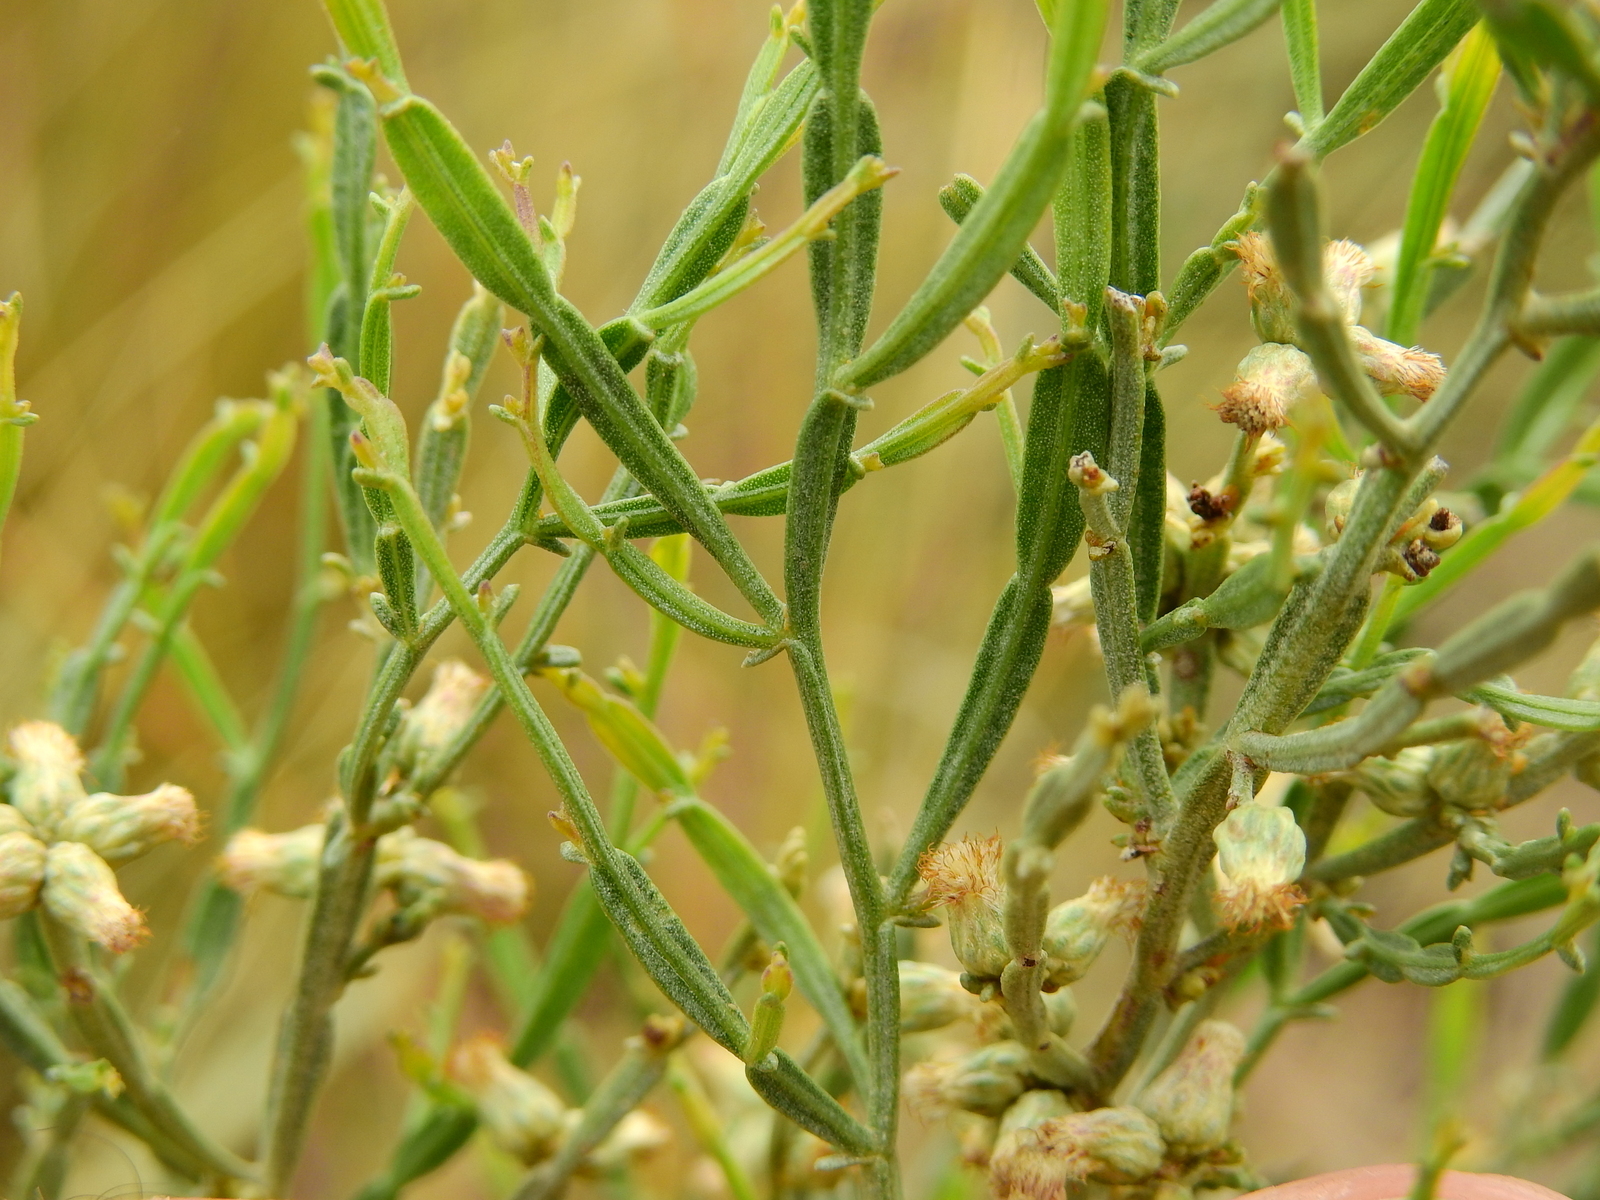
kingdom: Plantae
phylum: Tracheophyta
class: Magnoliopsida
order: Asterales
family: Asteraceae
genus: Baccharis
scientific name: Baccharis articulata
